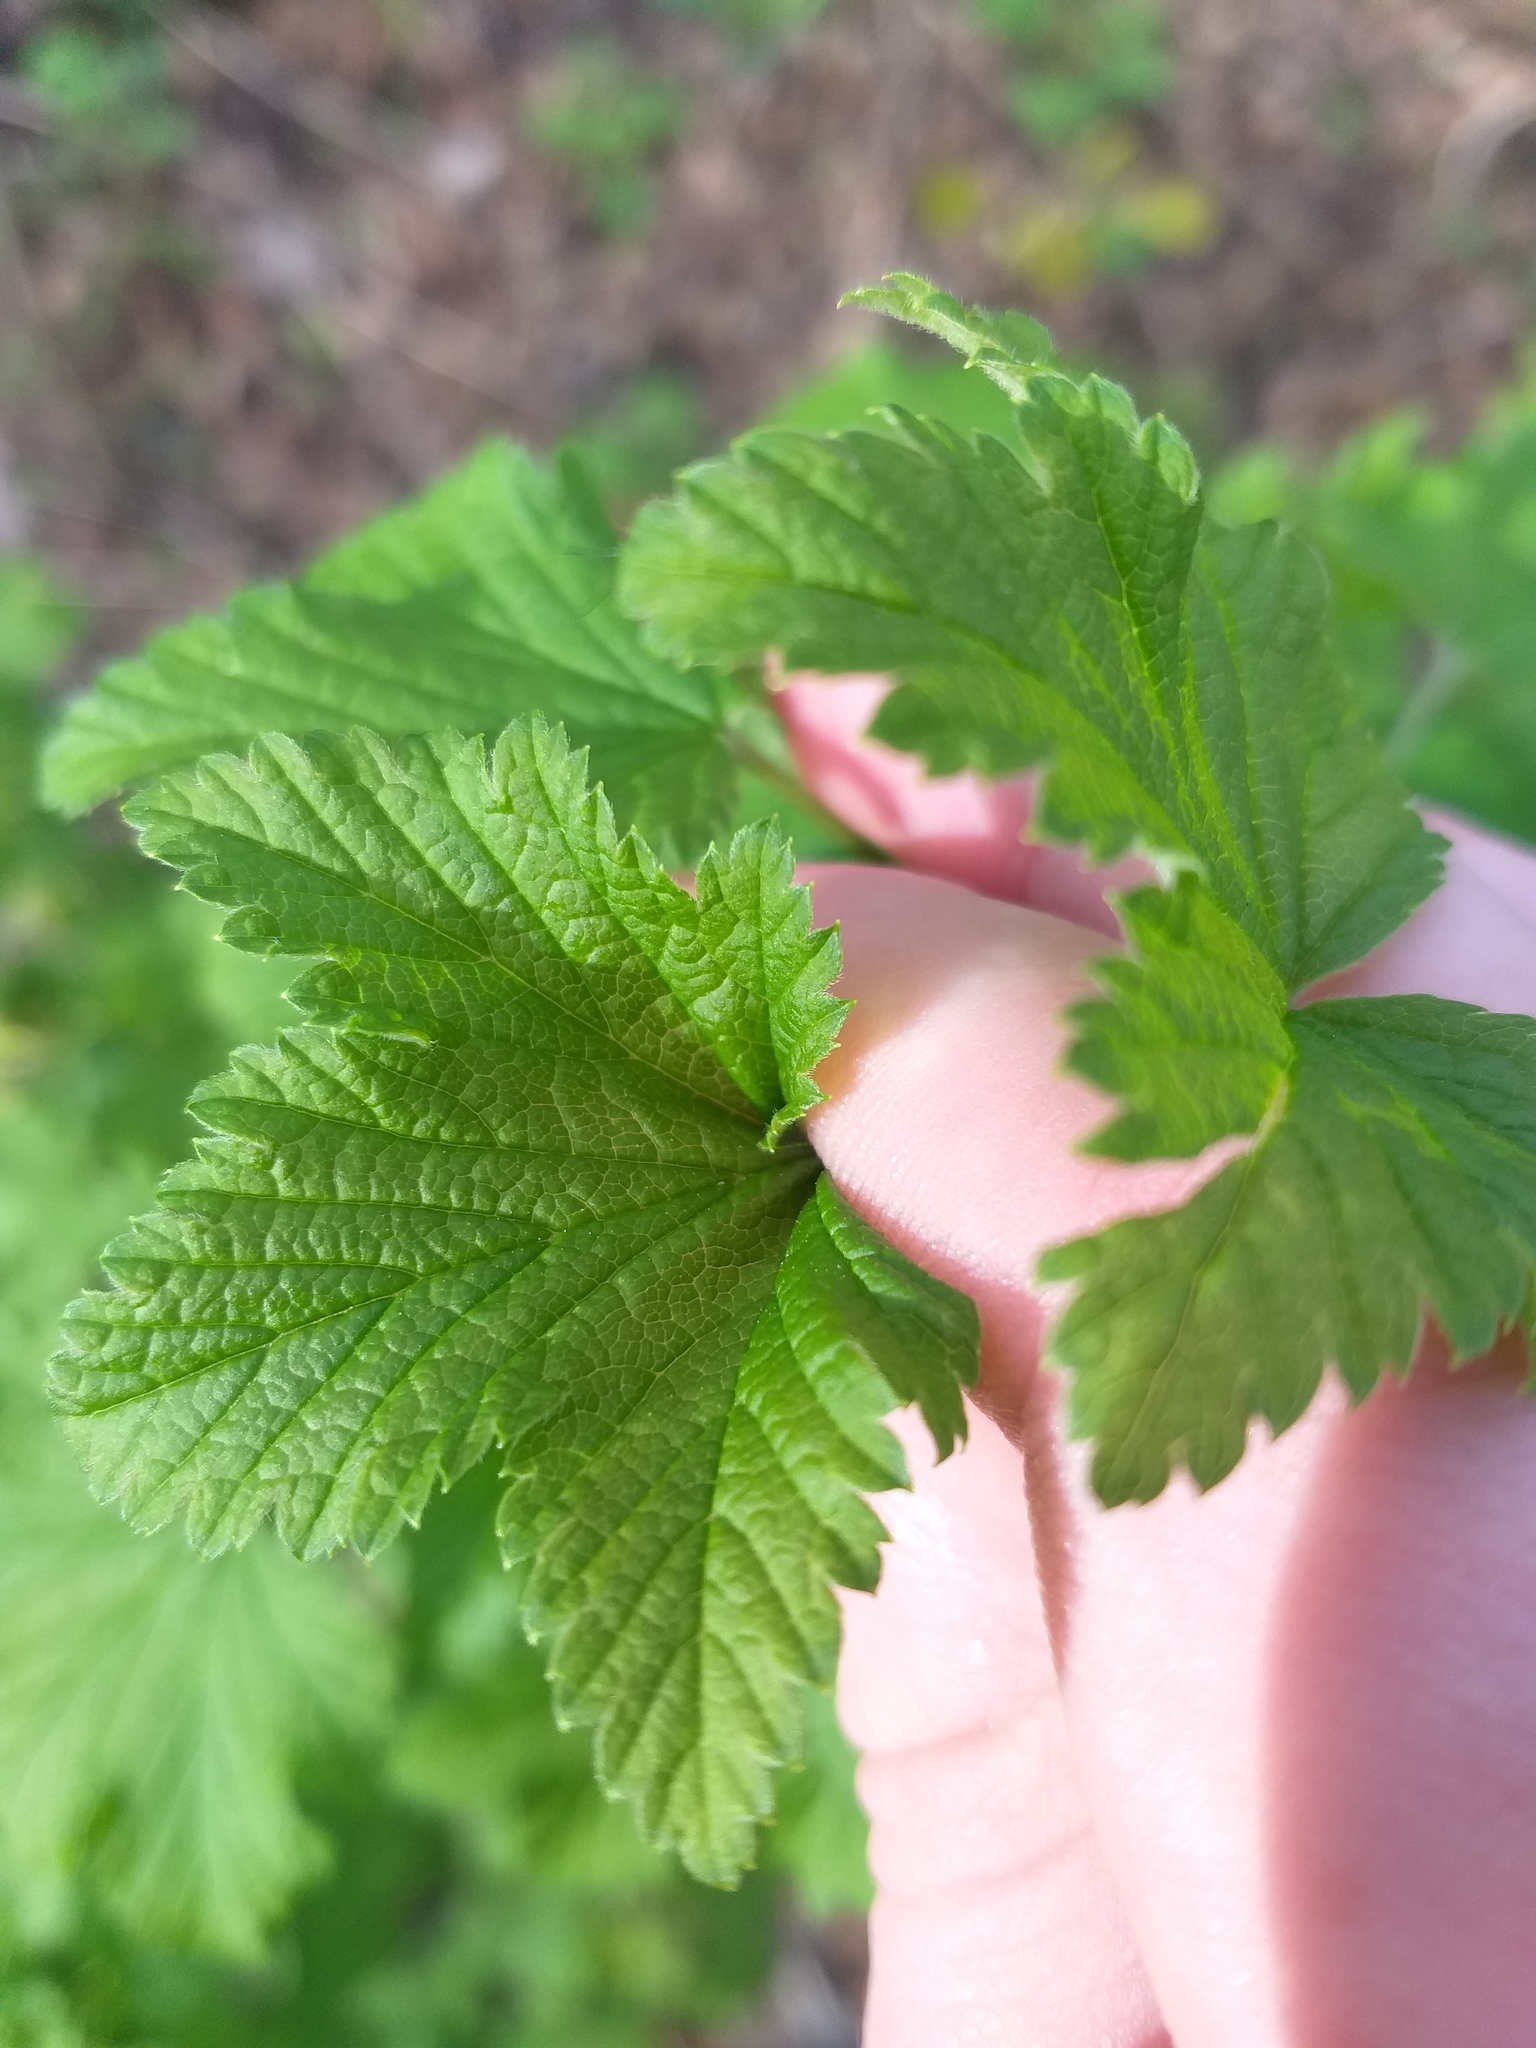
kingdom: Plantae
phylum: Tracheophyta
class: Magnoliopsida
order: Saxifragales
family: Grossulariaceae
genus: Ribes
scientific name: Ribes rubrum
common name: Red currant
